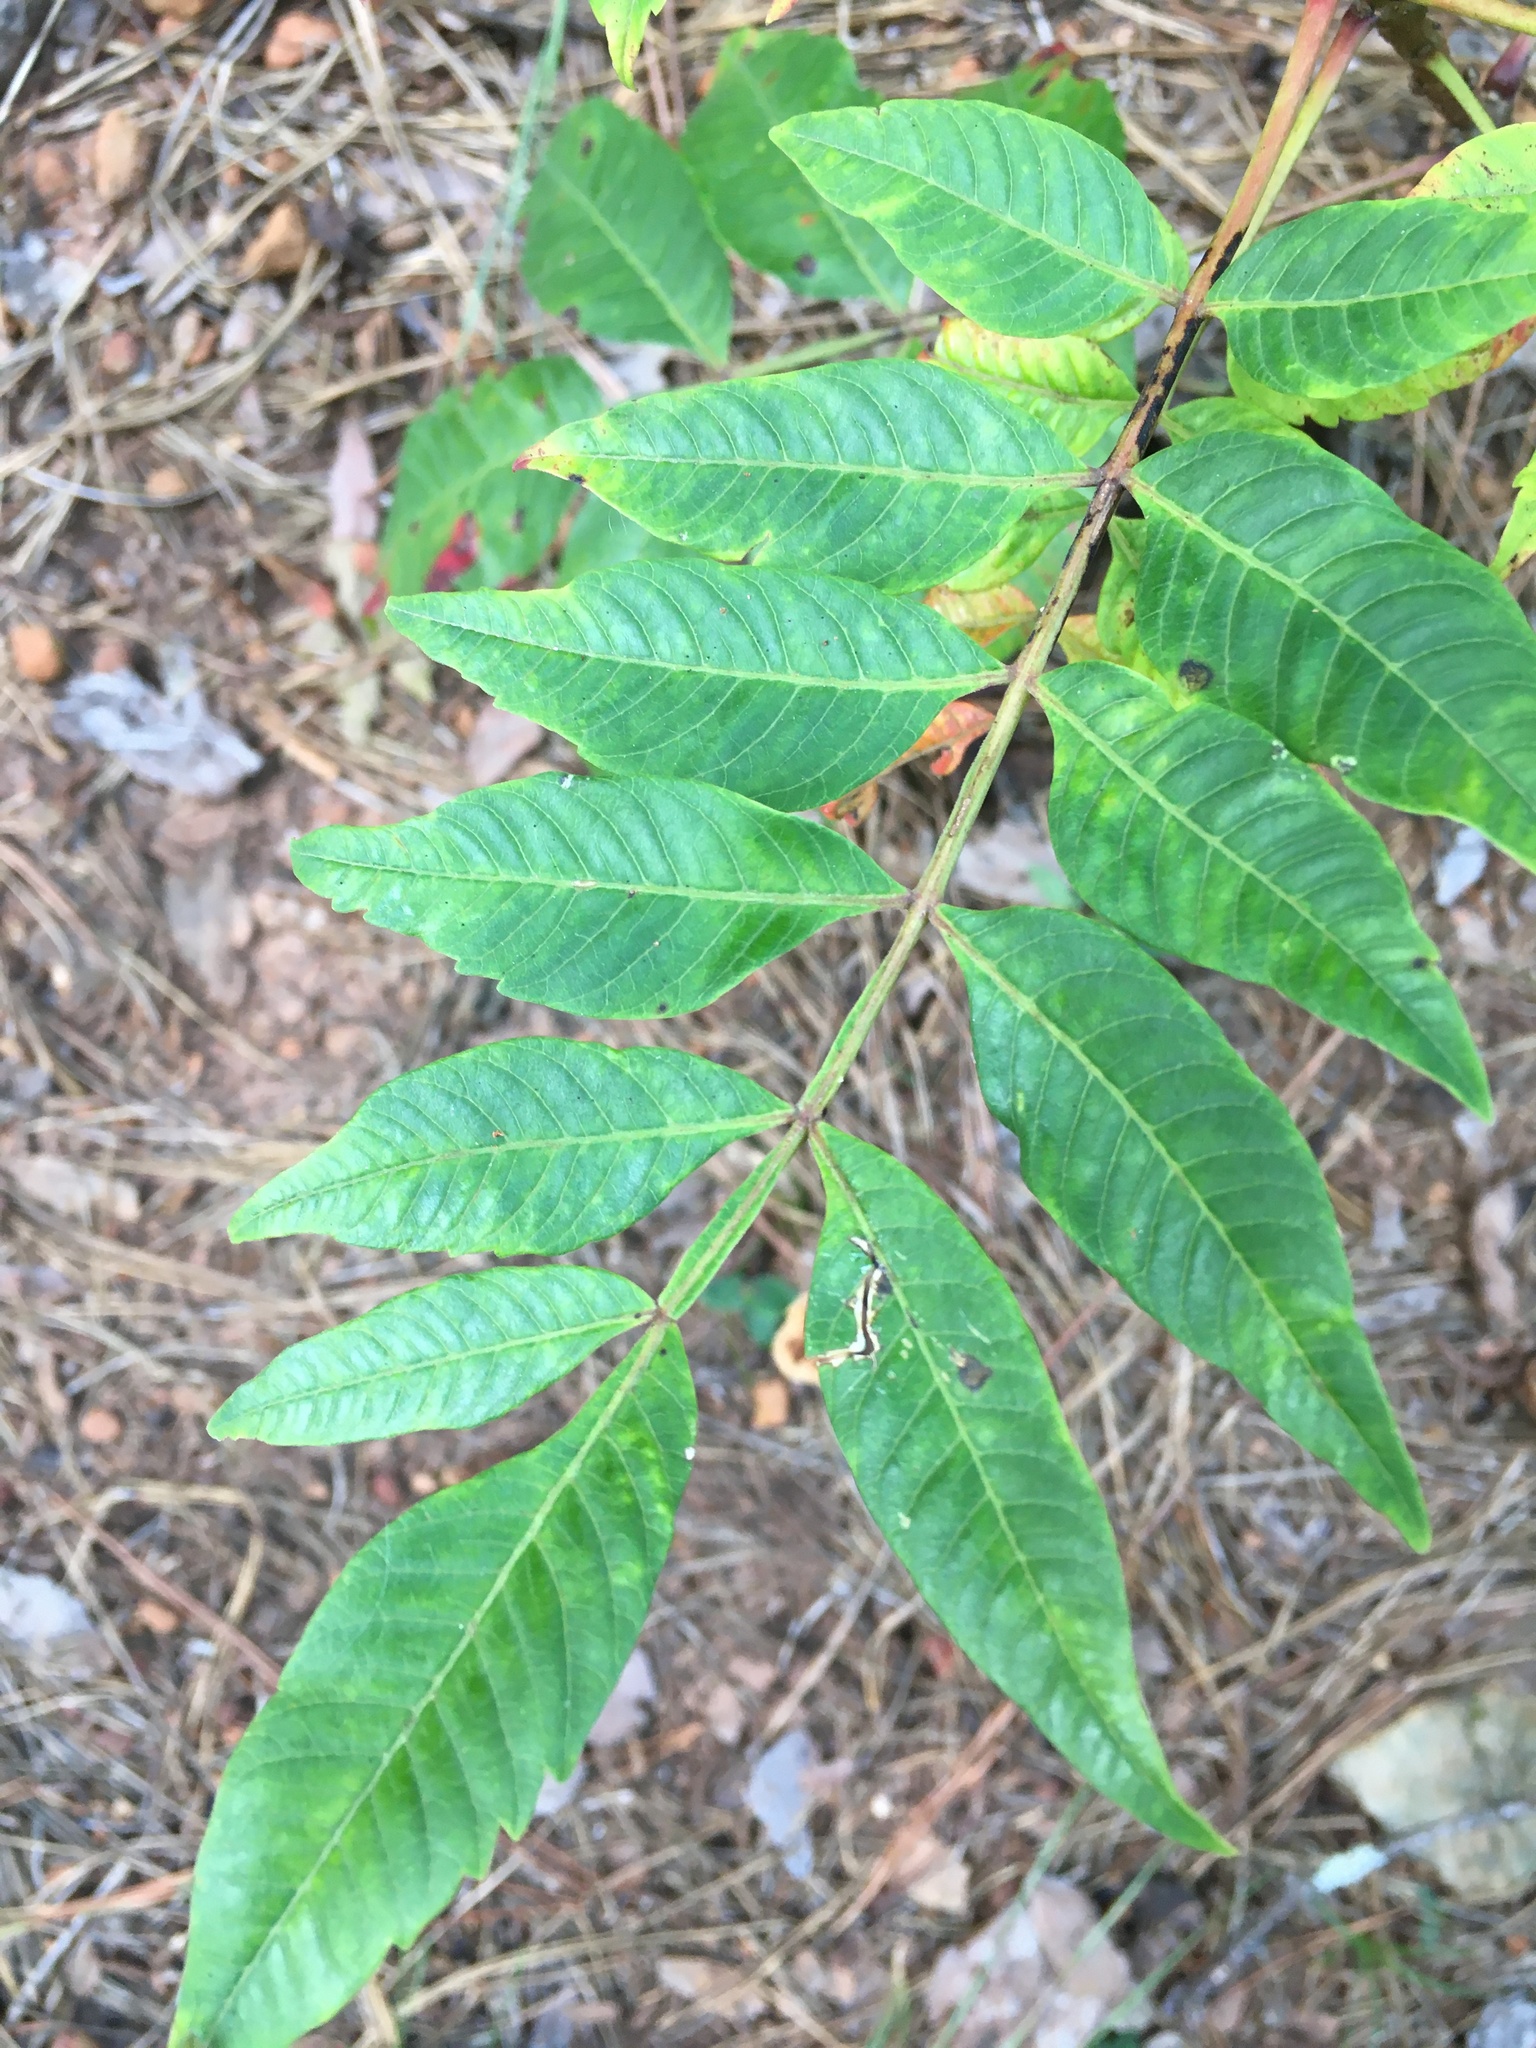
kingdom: Plantae
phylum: Tracheophyta
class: Magnoliopsida
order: Sapindales
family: Anacardiaceae
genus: Rhus
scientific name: Rhus copallina
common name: Shining sumac
